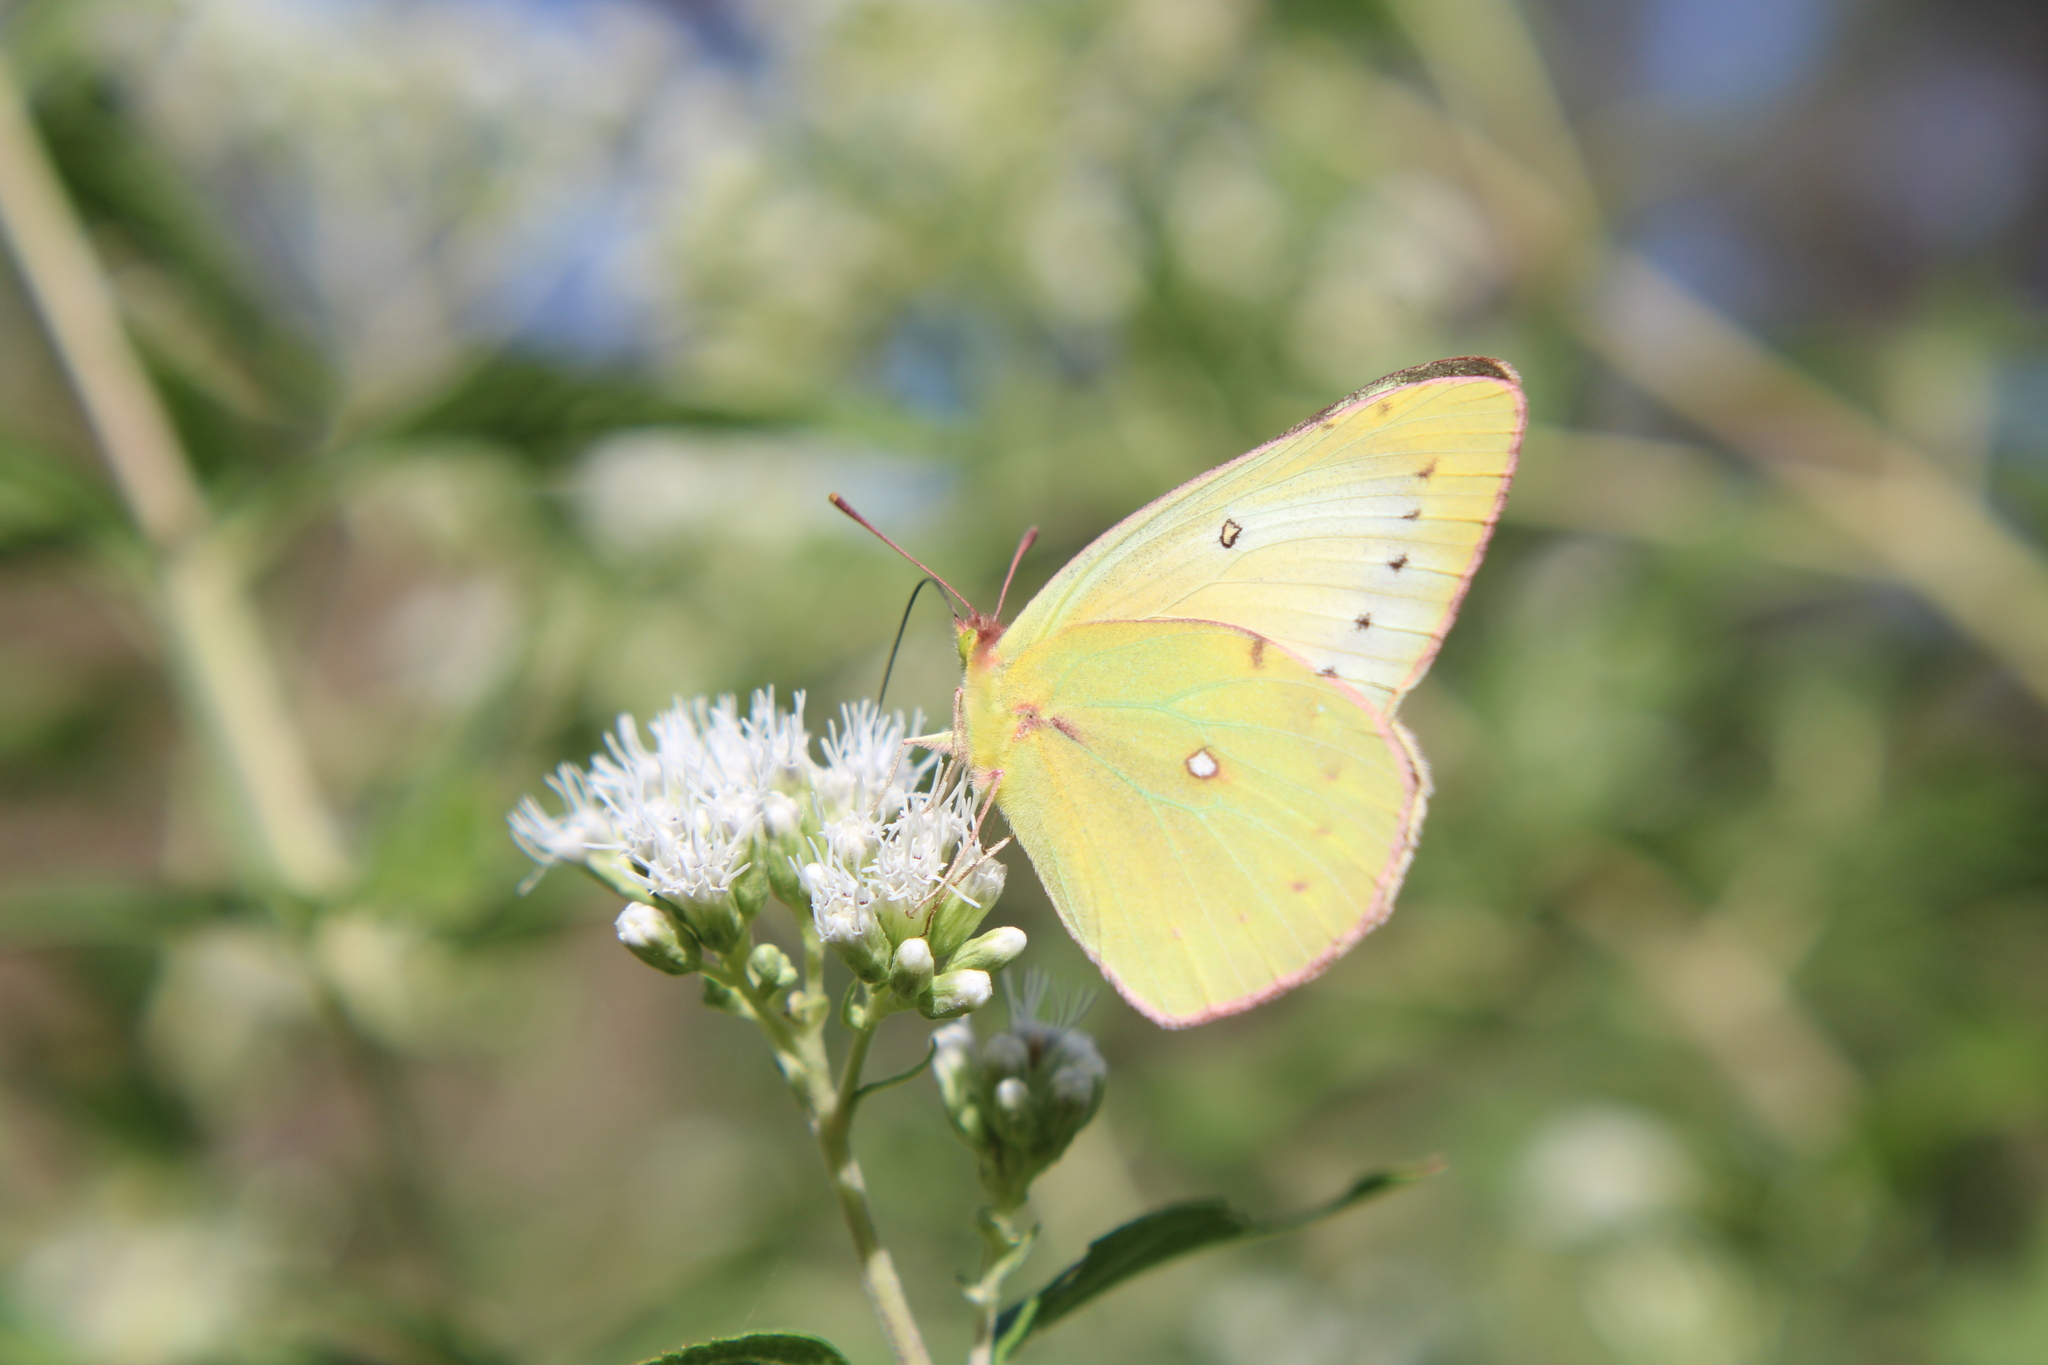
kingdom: Animalia
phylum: Arthropoda
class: Insecta
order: Lepidoptera
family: Pieridae
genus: Colias
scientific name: Colias lesbia
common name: Lesbia clouded yellow
